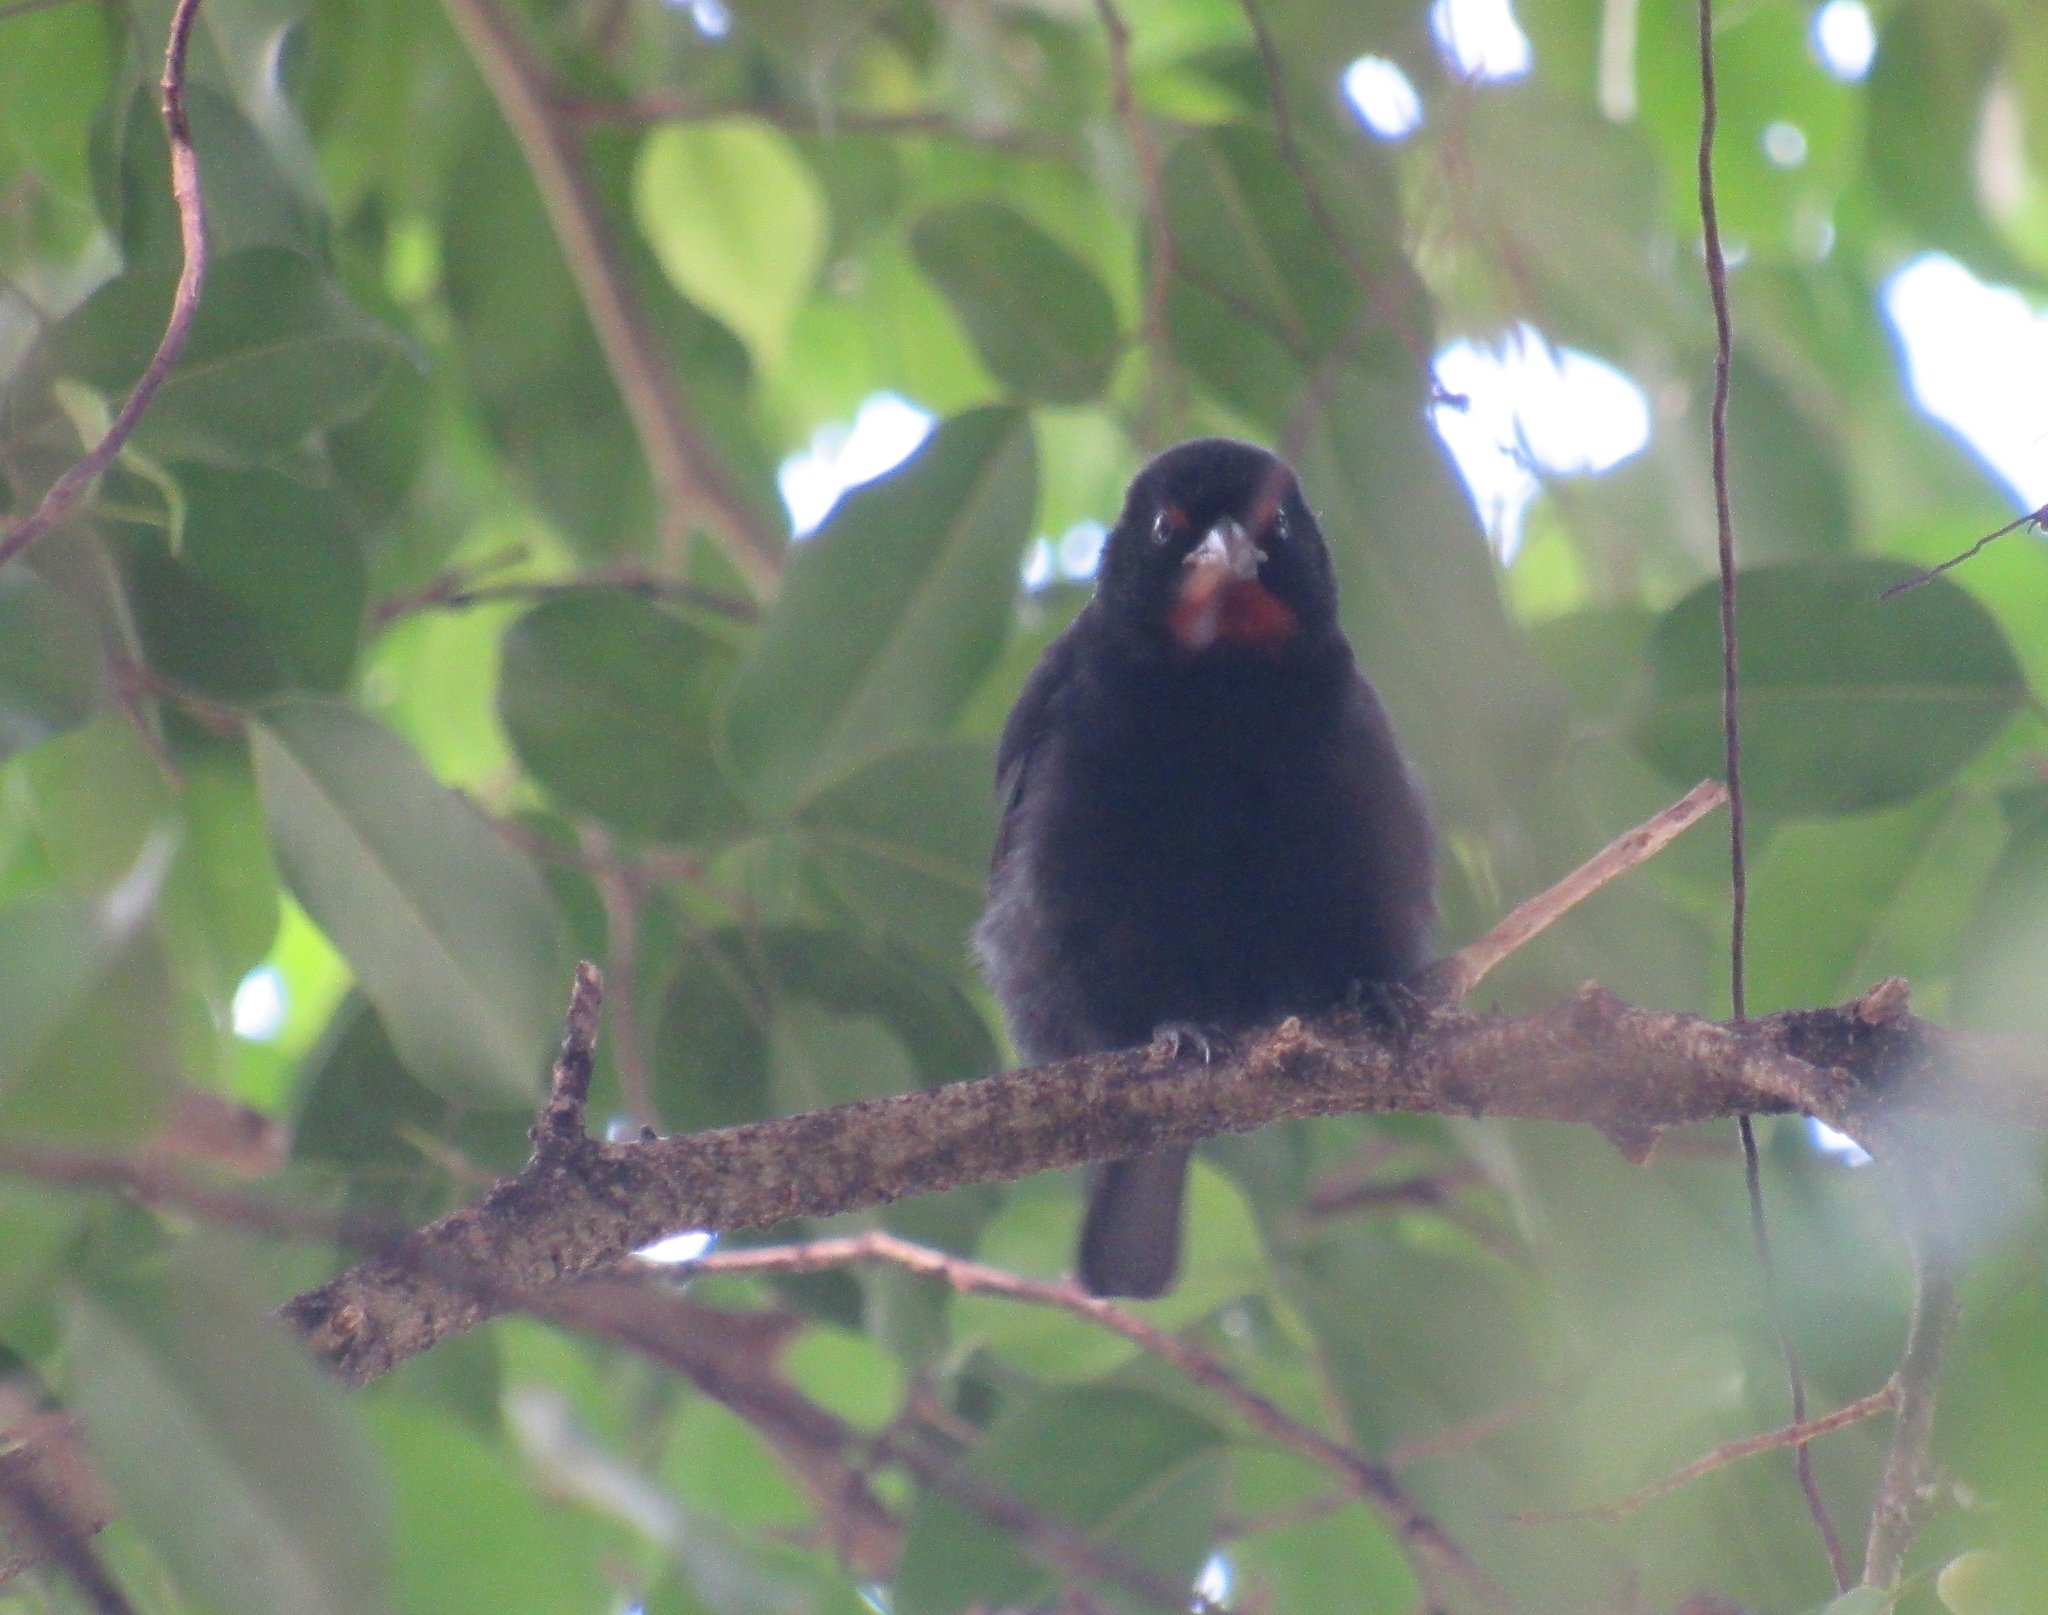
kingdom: Animalia
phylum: Chordata
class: Aves
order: Passeriformes
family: Thraupidae
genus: Loxigilla
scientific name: Loxigilla noctis
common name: Lesser antillean bullfinch
